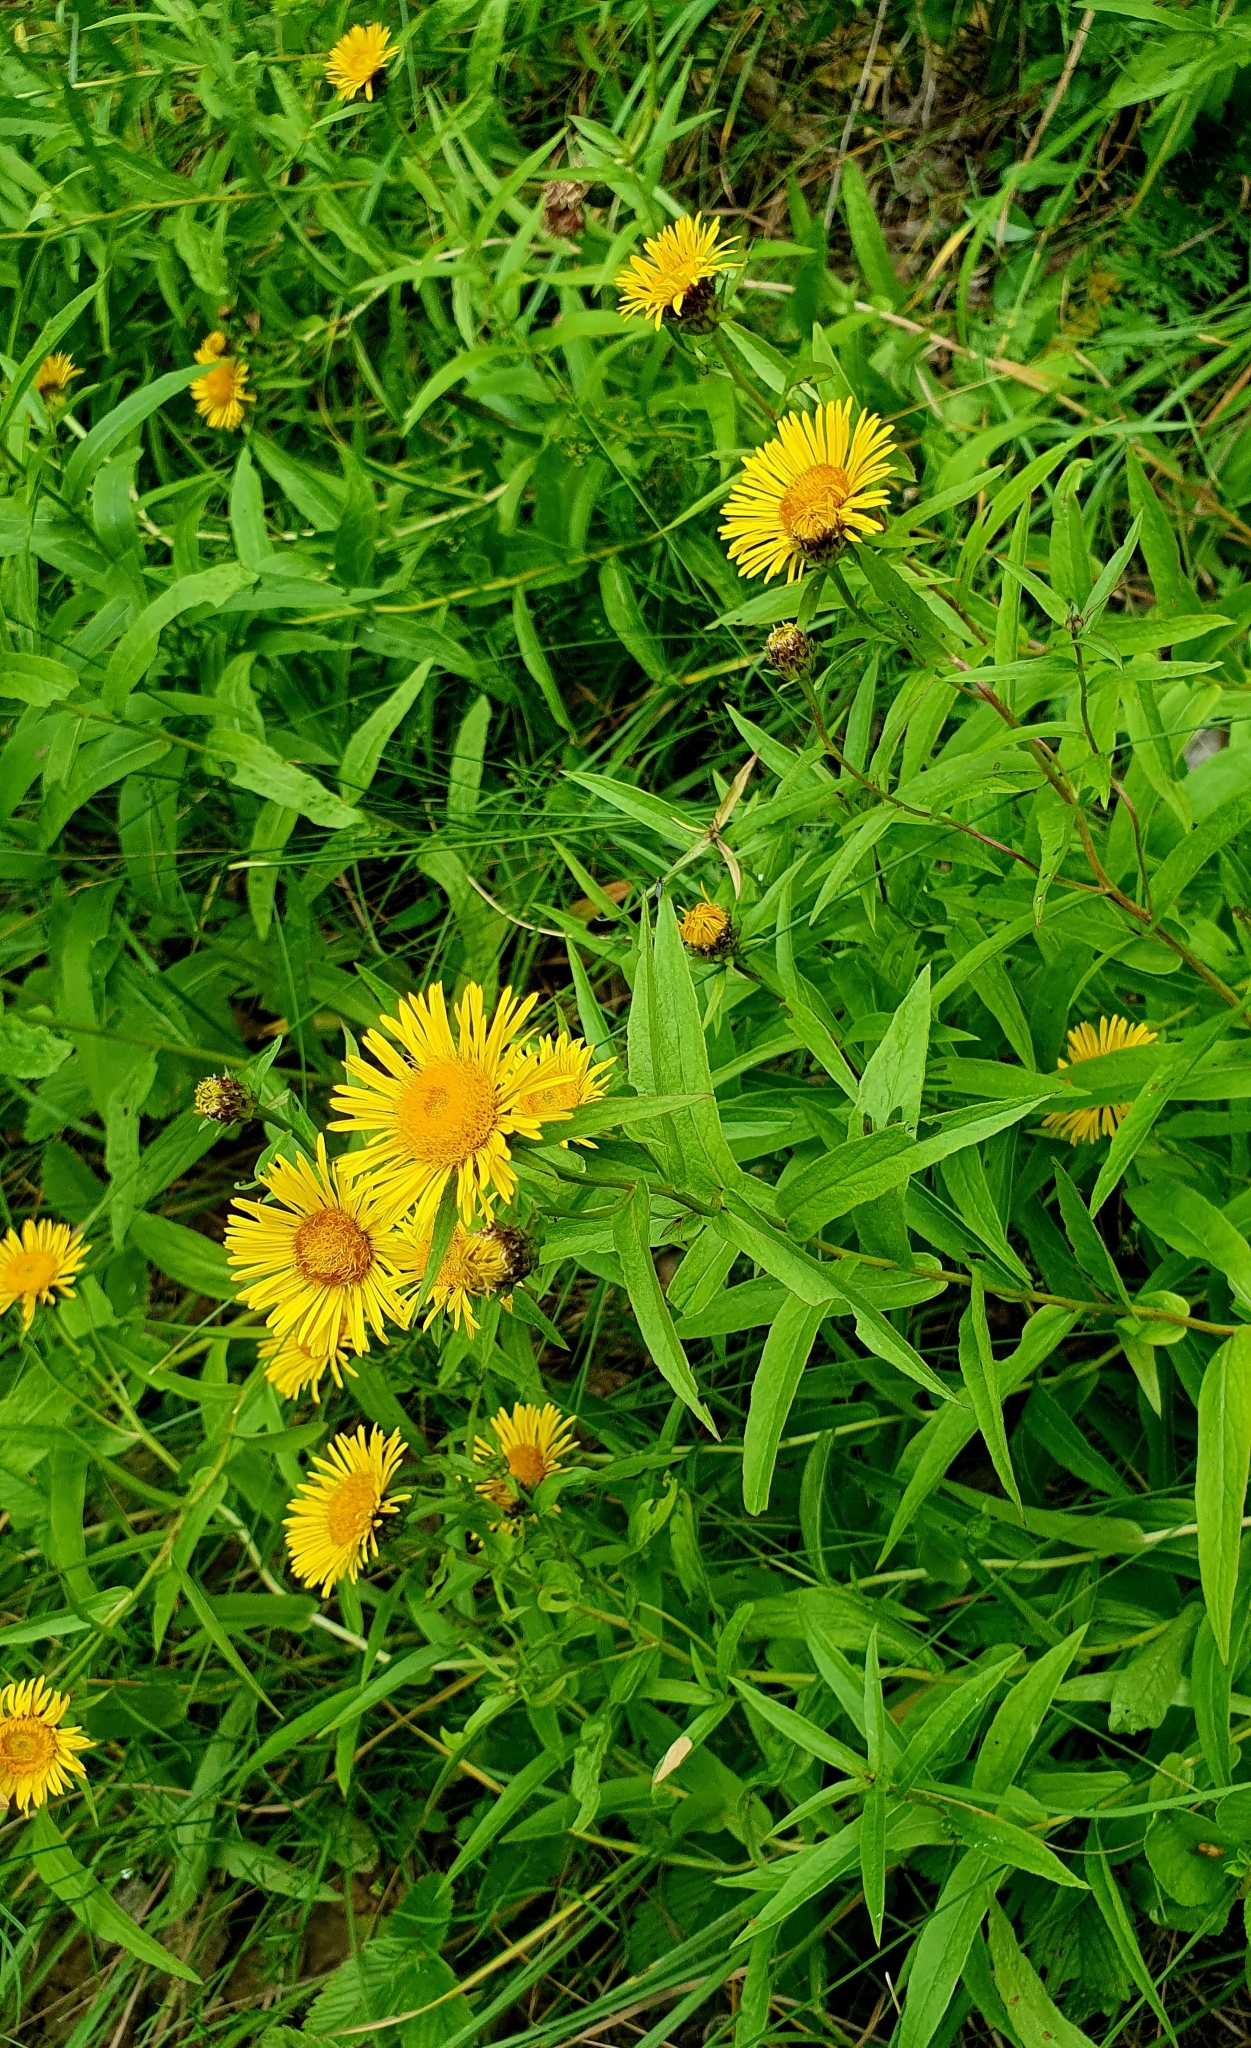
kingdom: Plantae
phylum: Tracheophyta
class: Magnoliopsida
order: Asterales
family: Asteraceae
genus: Pentanema
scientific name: Pentanema salicinum
